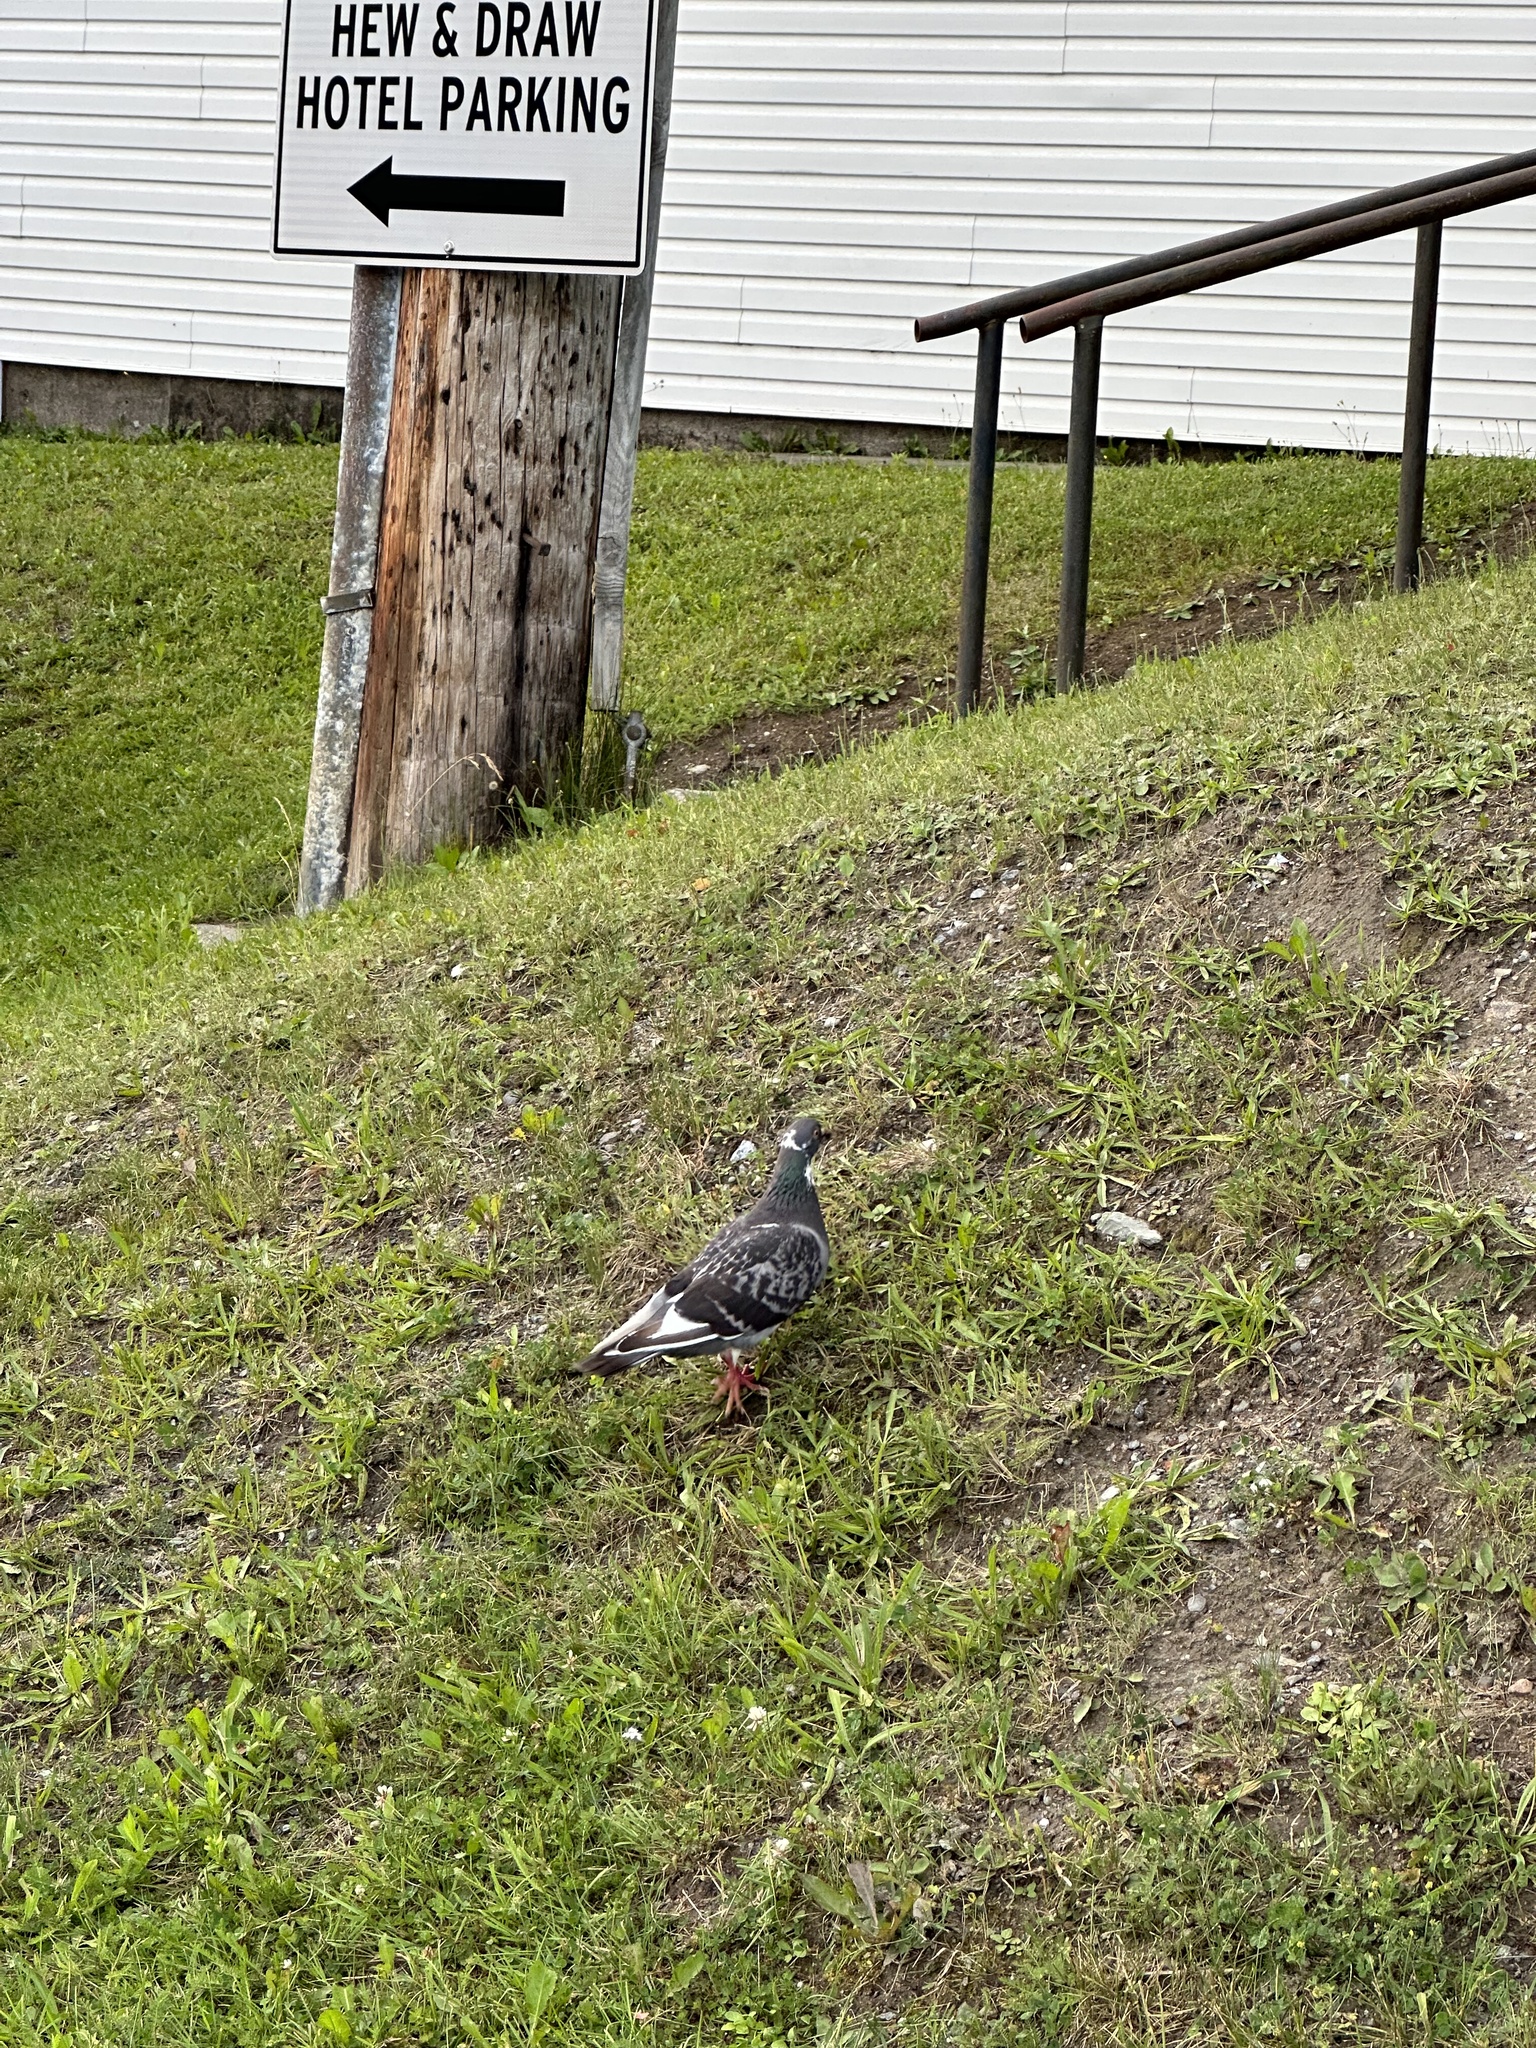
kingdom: Animalia
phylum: Chordata
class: Aves
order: Columbiformes
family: Columbidae
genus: Columba
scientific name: Columba livia
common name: Rock pigeon
